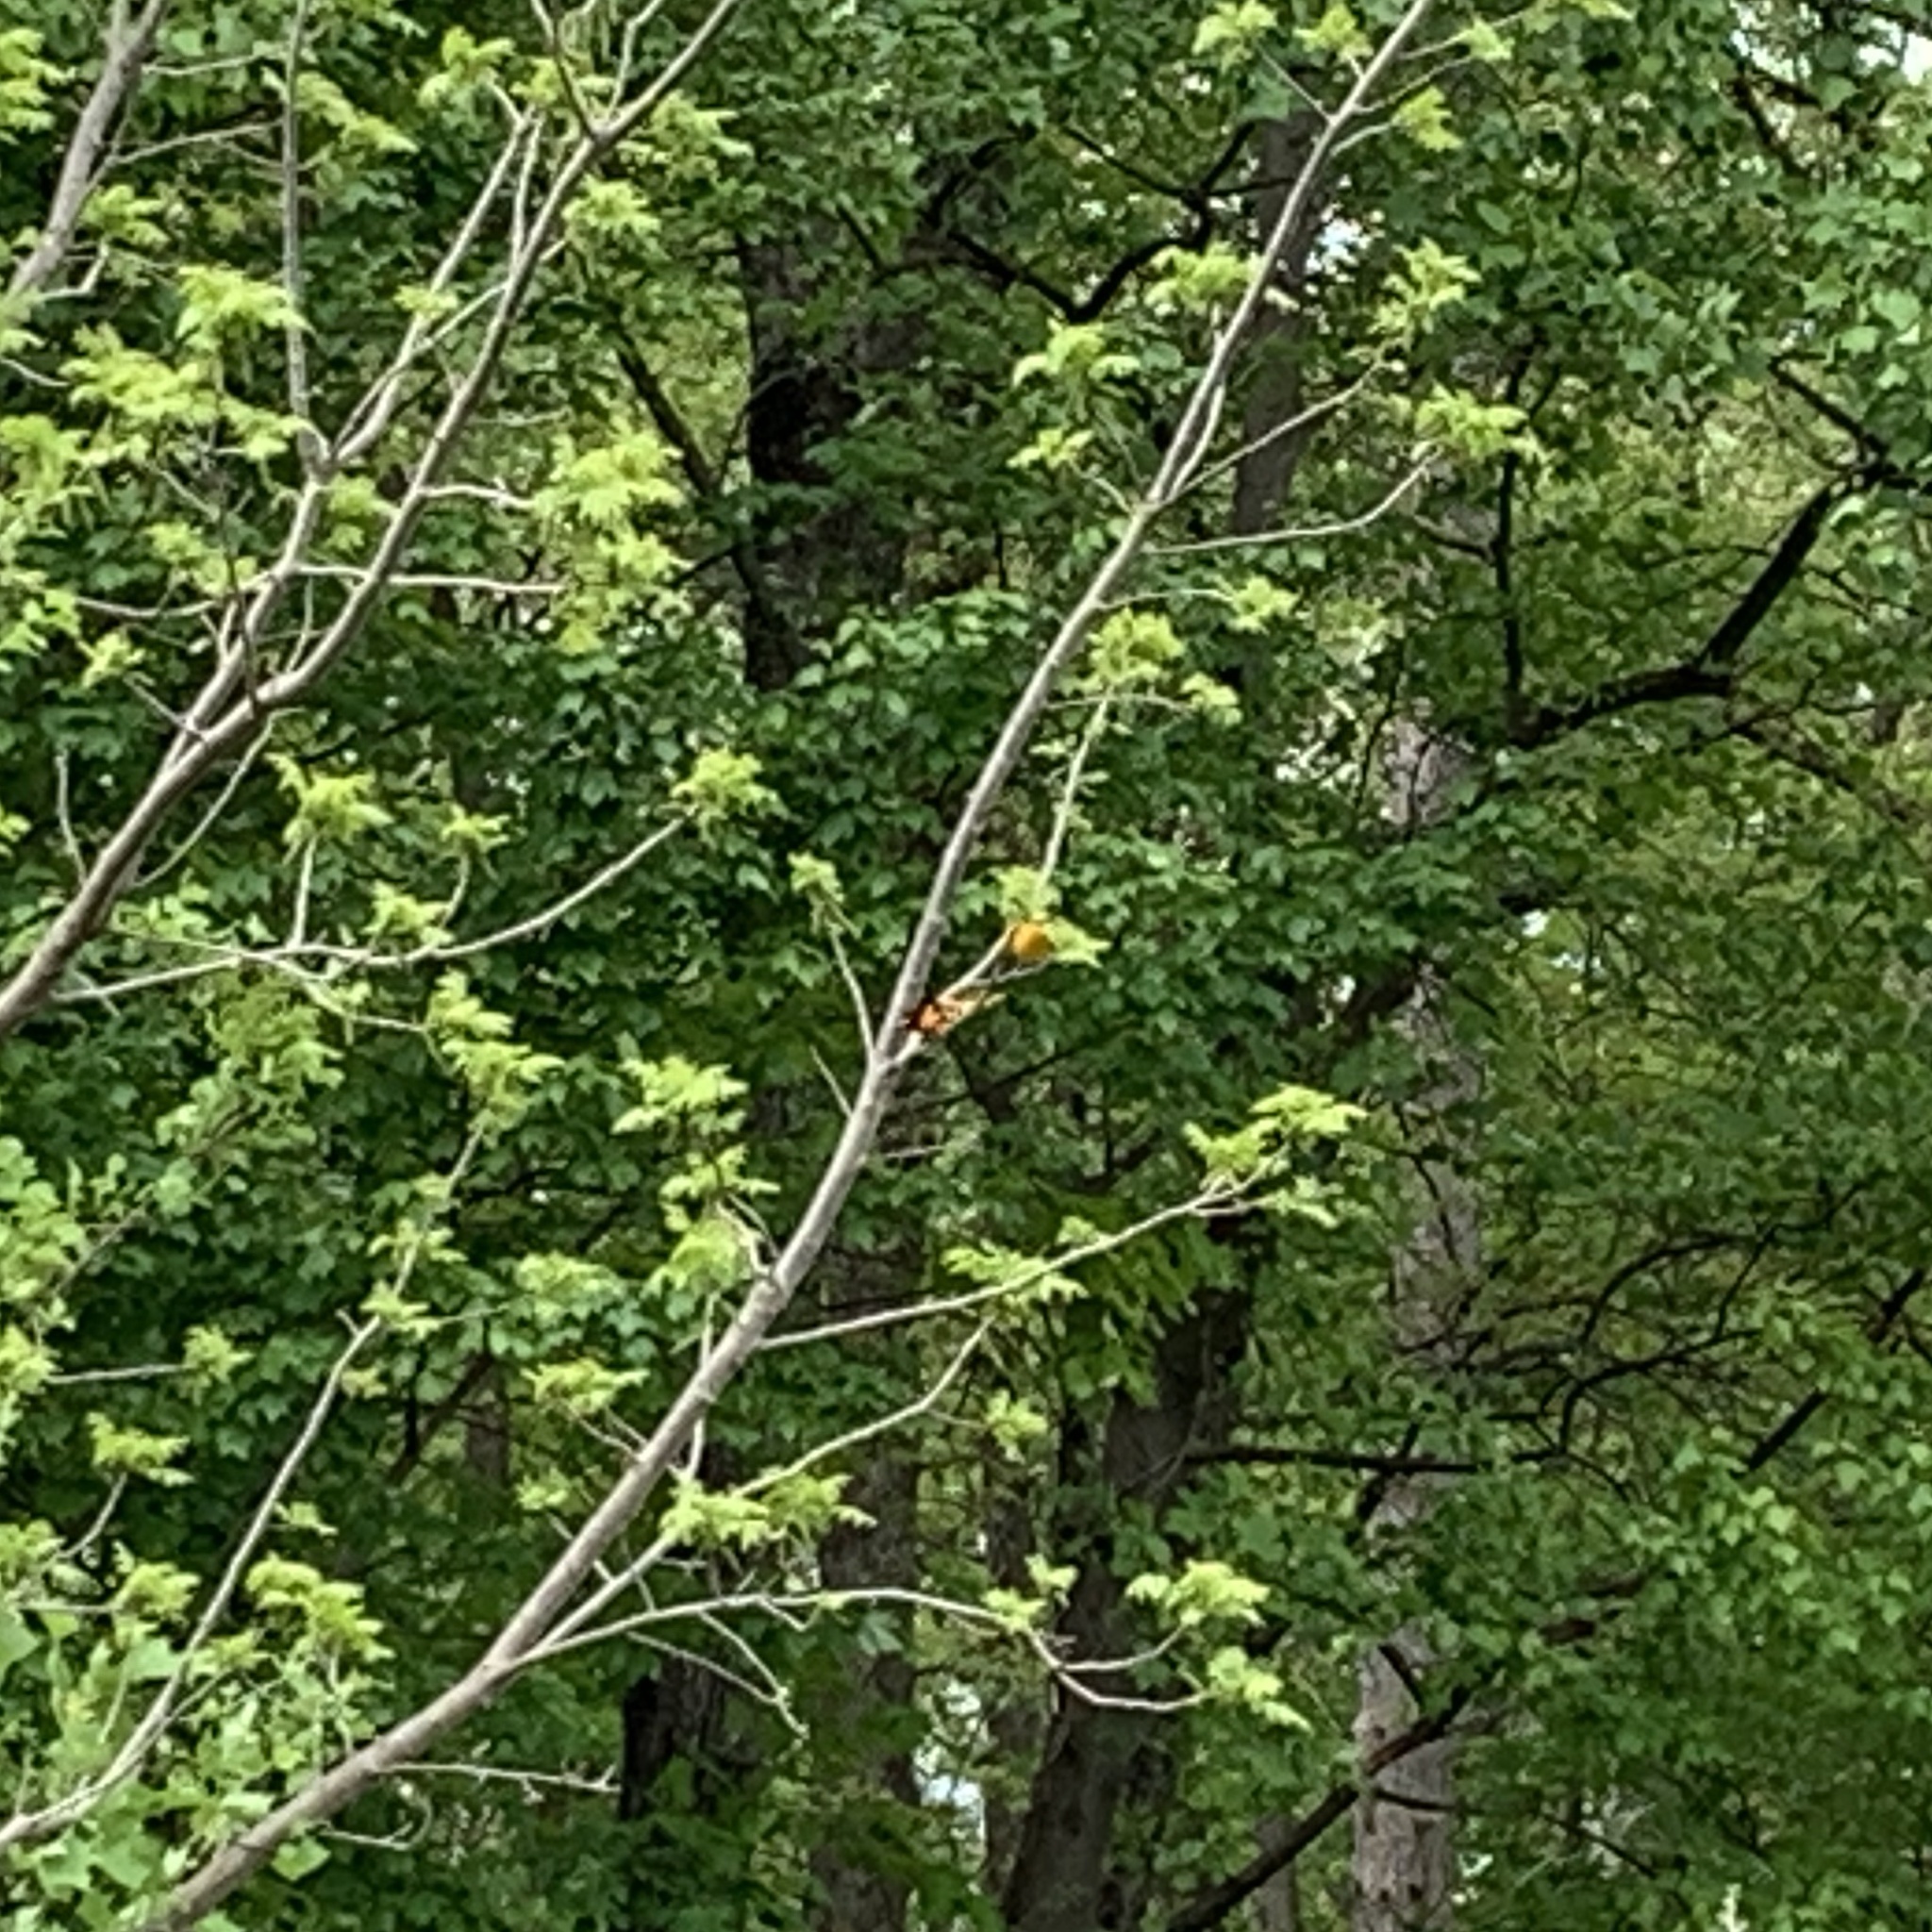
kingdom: Animalia
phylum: Chordata
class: Aves
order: Passeriformes
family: Icteridae
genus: Icterus
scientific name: Icterus galbula
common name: Baltimore oriole
